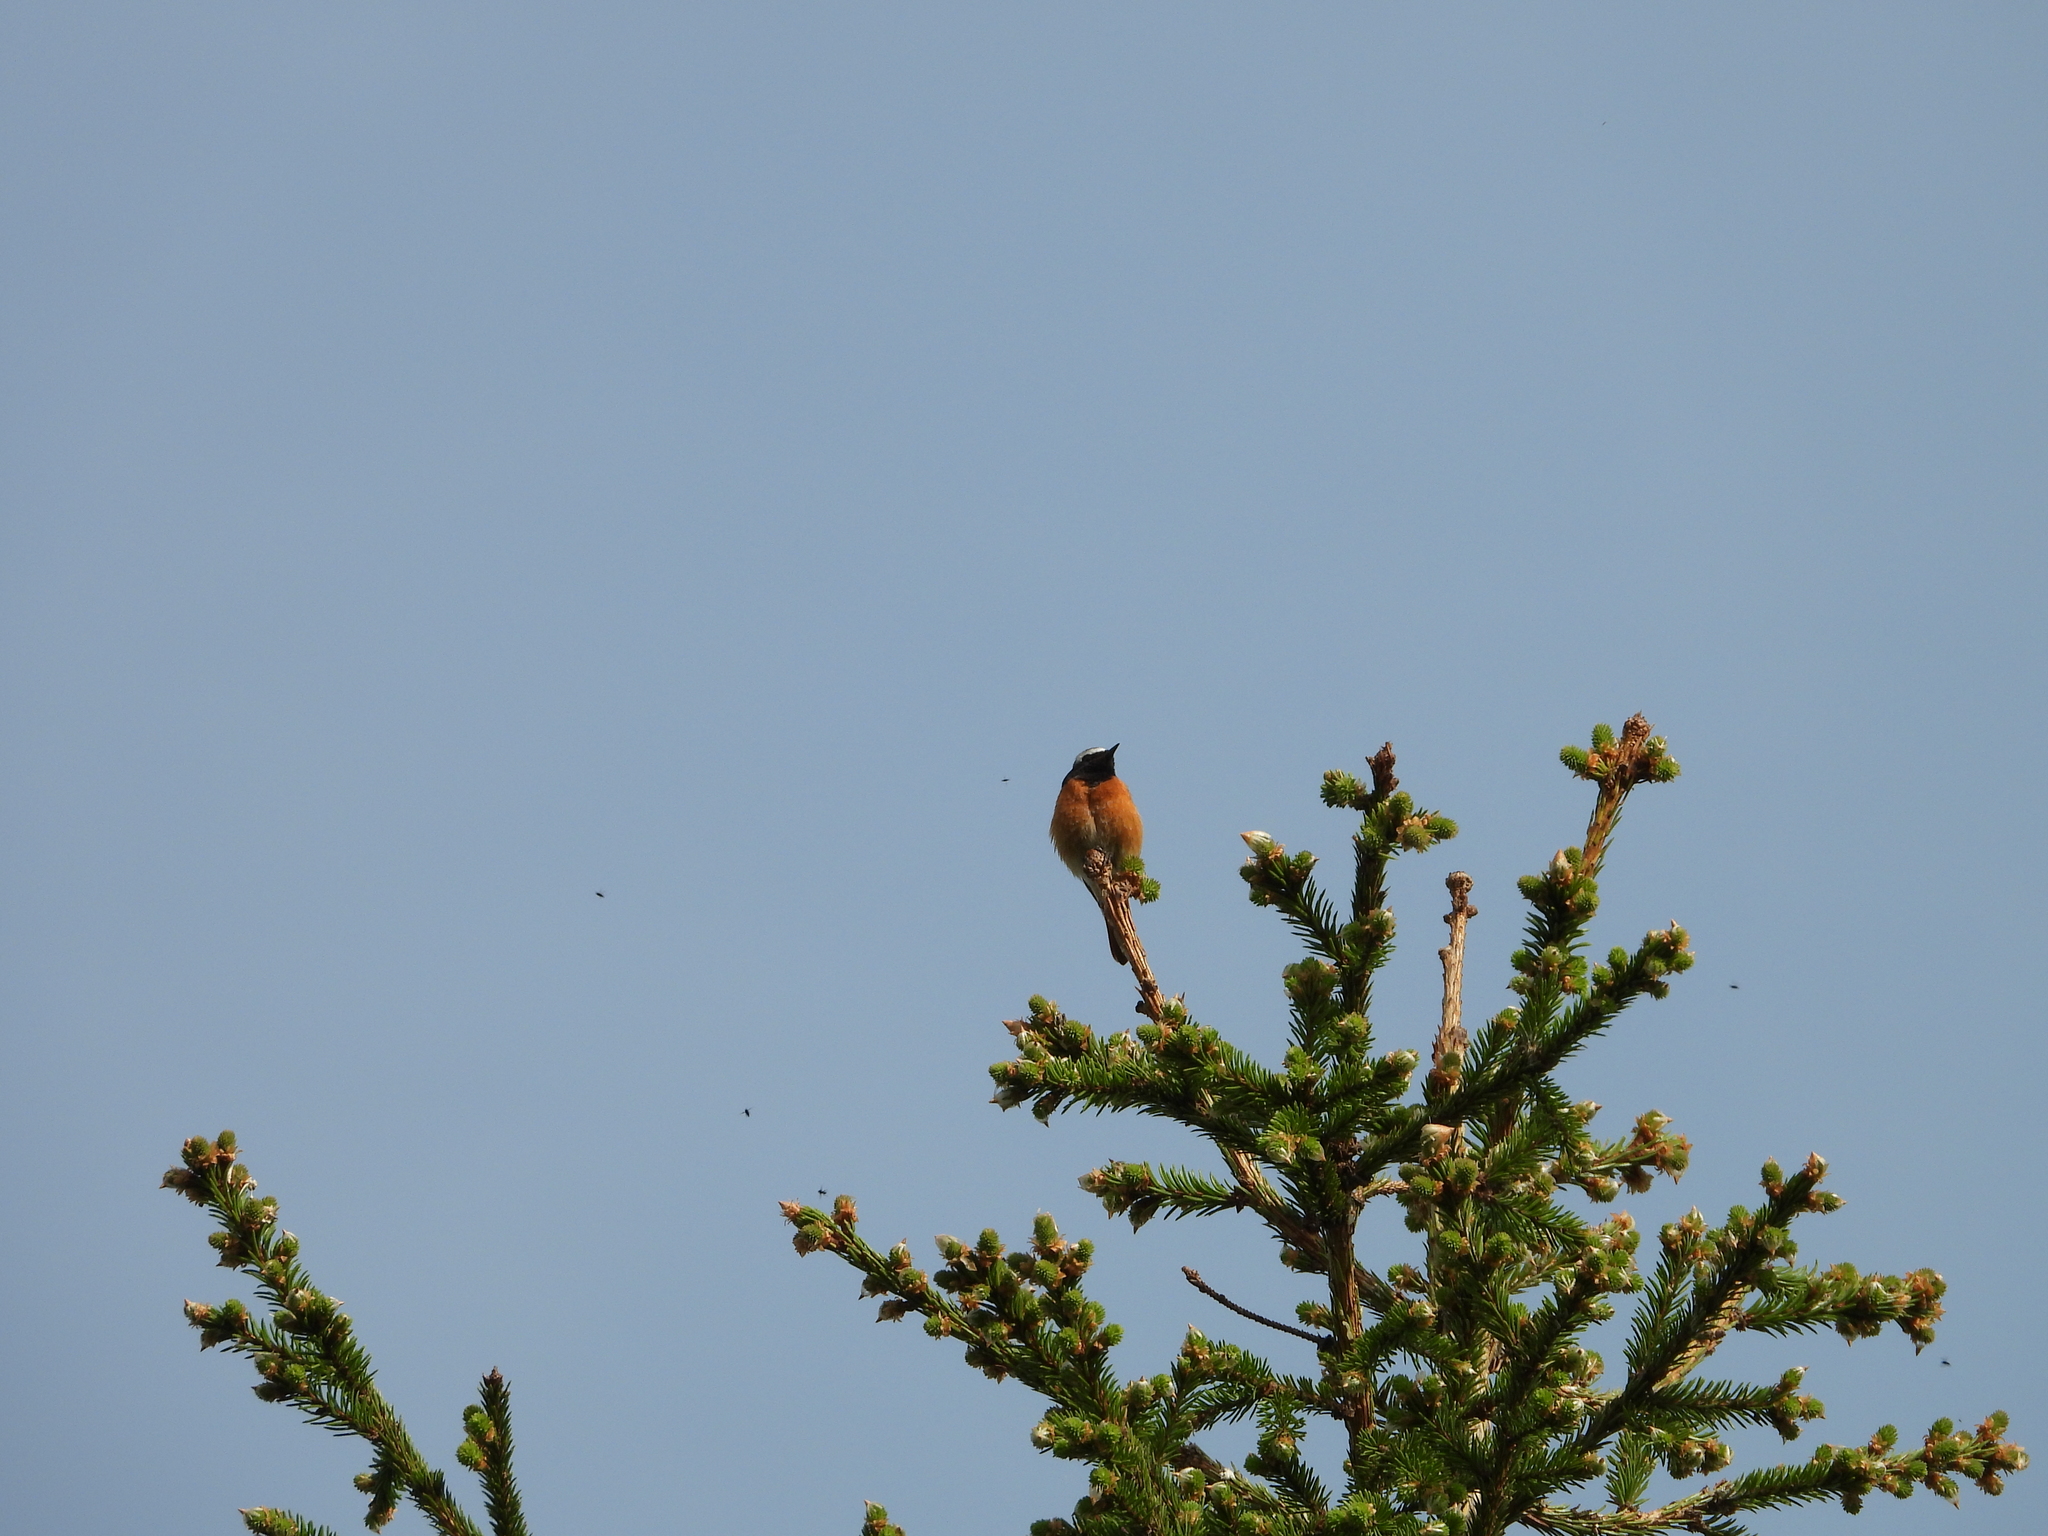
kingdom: Animalia
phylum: Chordata
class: Aves
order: Passeriformes
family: Muscicapidae
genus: Phoenicurus
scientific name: Phoenicurus phoenicurus
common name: Common redstart
